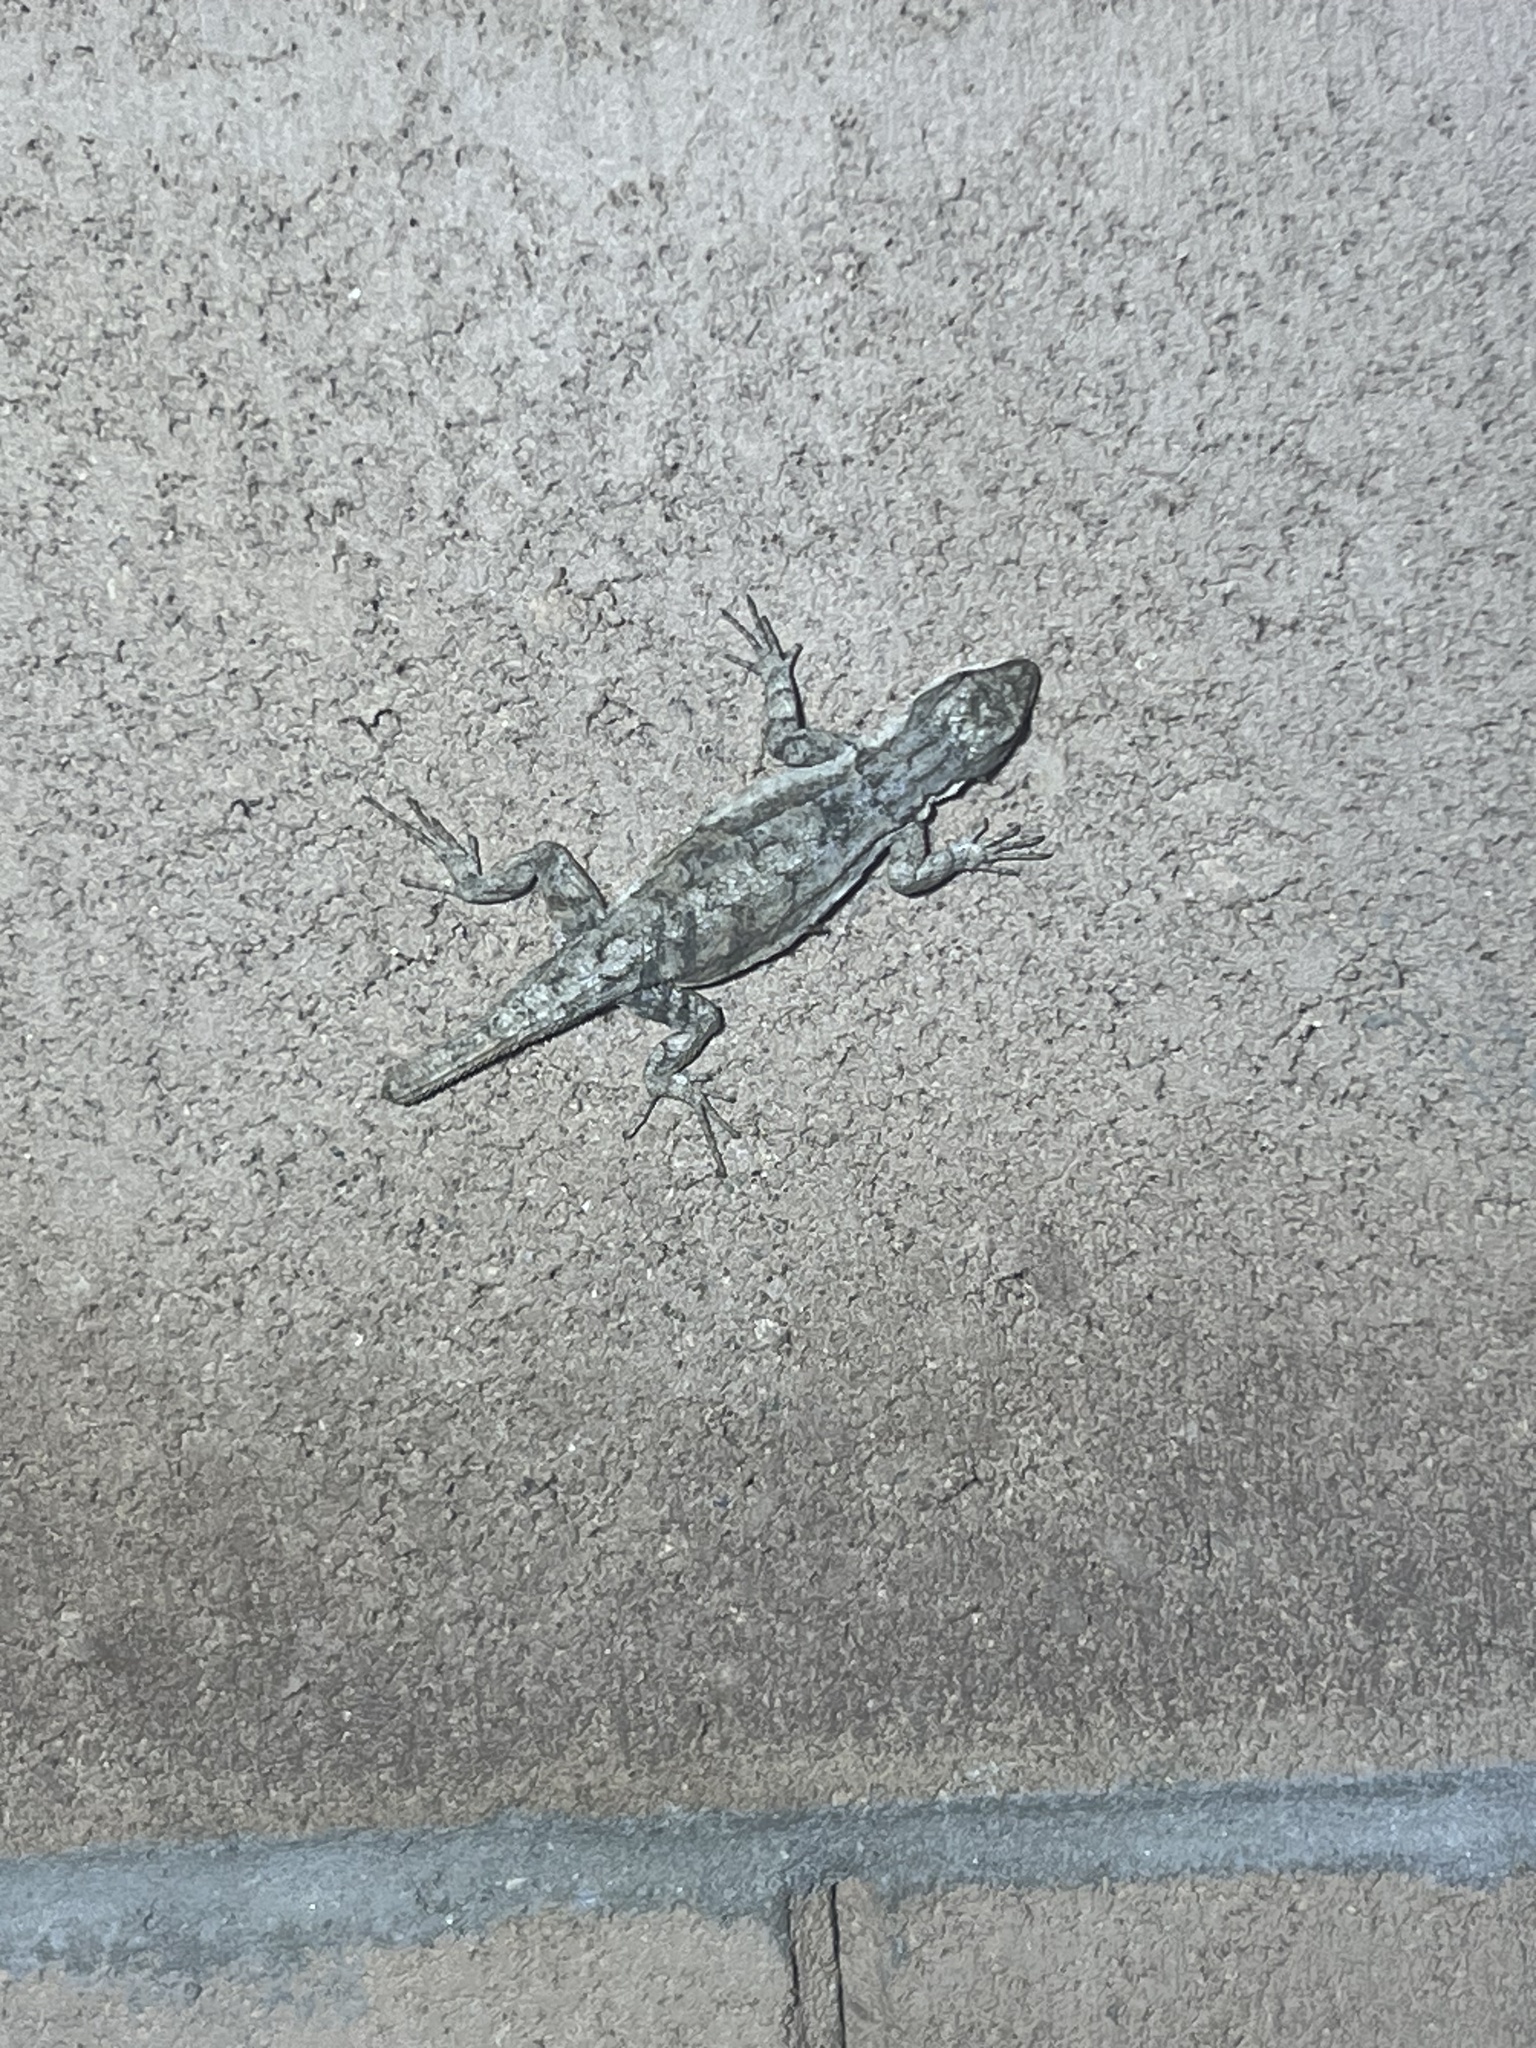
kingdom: Animalia
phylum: Chordata
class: Squamata
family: Phrynosomatidae
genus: Urosaurus
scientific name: Urosaurus ornatus
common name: Ornate tree lizard
